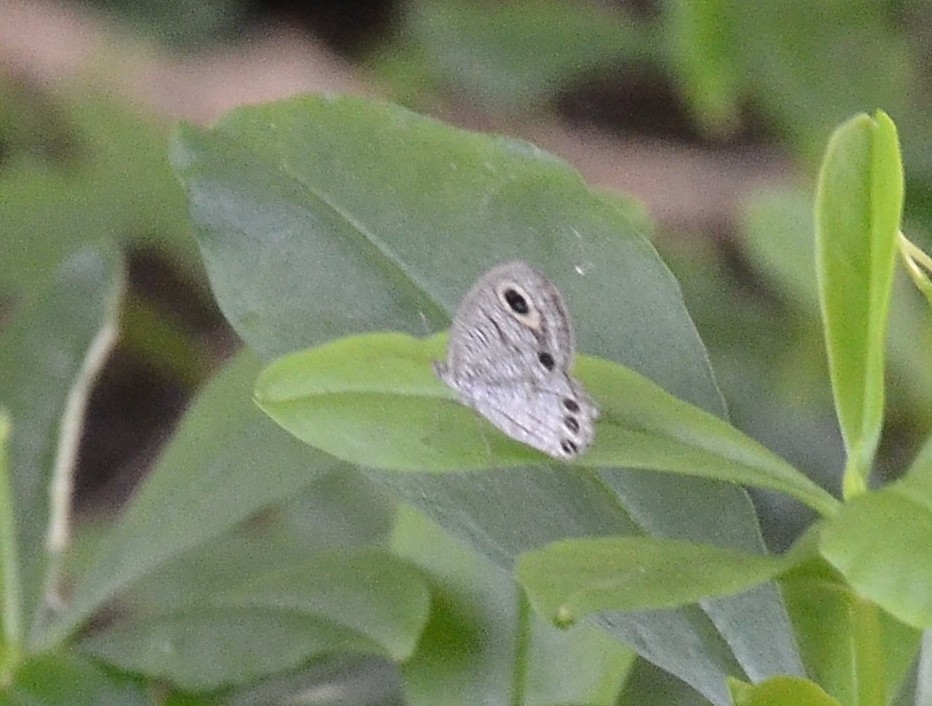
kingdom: Animalia
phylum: Arthropoda
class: Insecta
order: Lepidoptera
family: Nymphalidae
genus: Ypthima
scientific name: Ypthima huebneri
